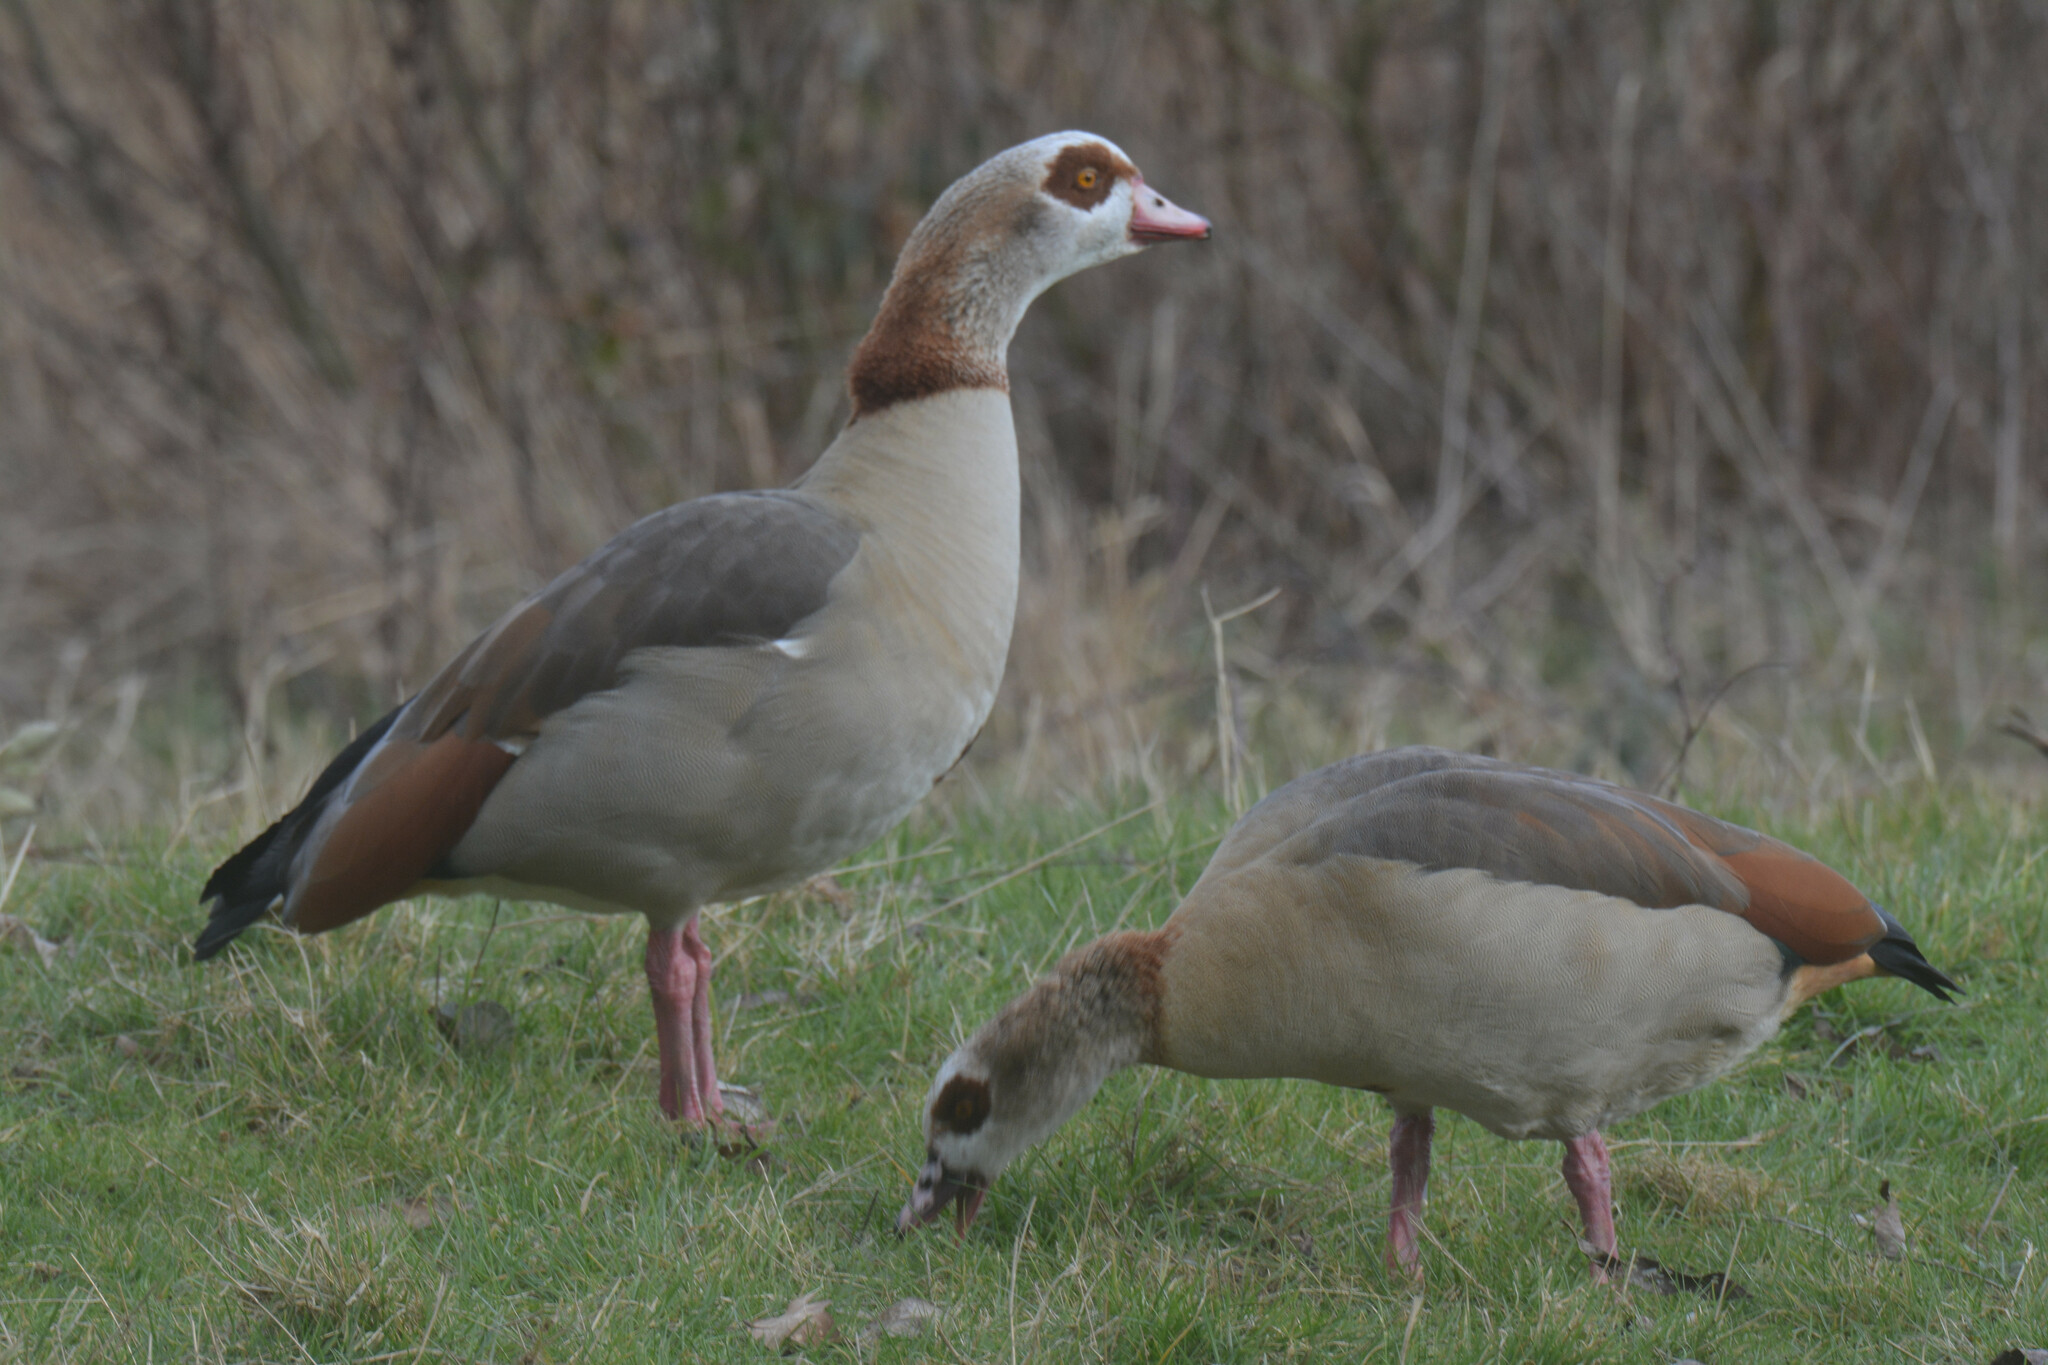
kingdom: Animalia
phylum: Chordata
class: Aves
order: Anseriformes
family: Anatidae
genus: Alopochen
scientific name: Alopochen aegyptiaca
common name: Egyptian goose
